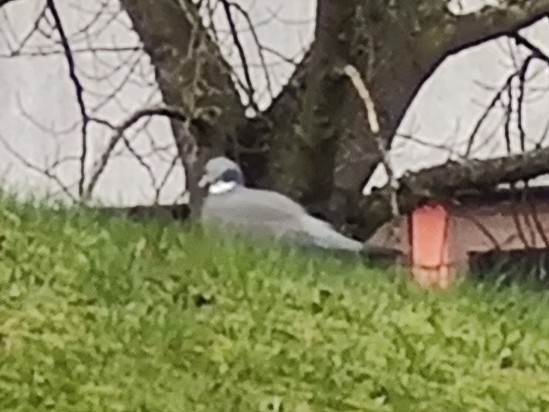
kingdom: Animalia
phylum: Chordata
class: Aves
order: Columbiformes
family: Columbidae
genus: Columba
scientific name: Columba palumbus
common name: Common wood pigeon
